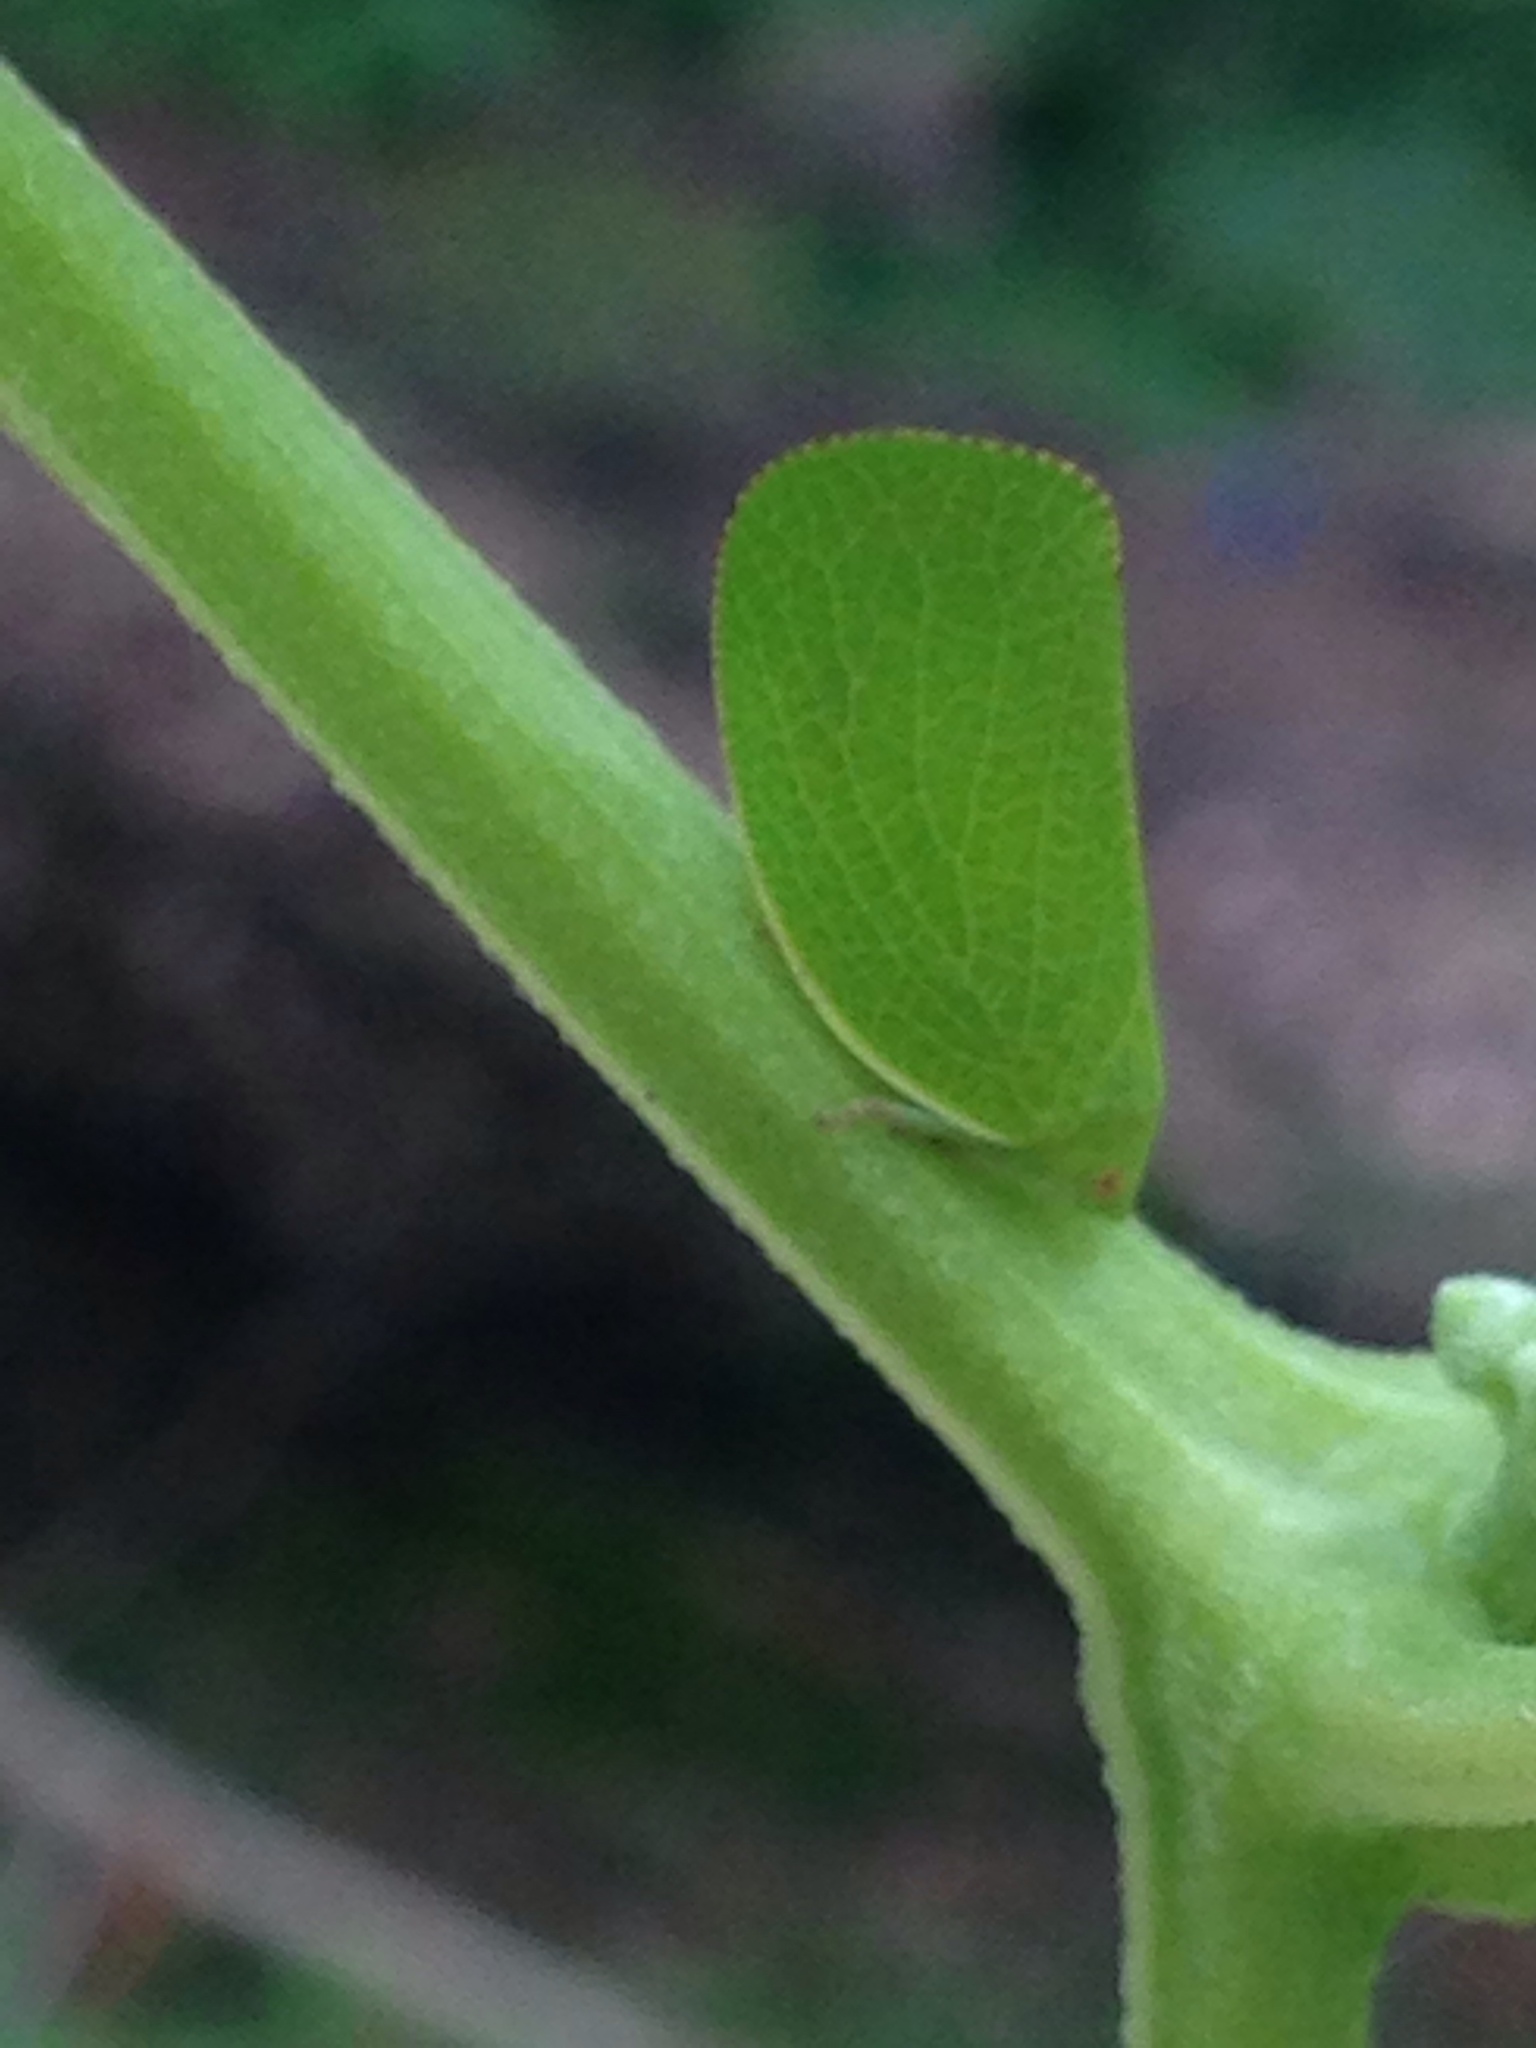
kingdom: Animalia
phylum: Arthropoda
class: Insecta
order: Hemiptera
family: Acanaloniidae
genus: Acanalonia
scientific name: Acanalonia conica
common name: Green cone-headed planthopper
